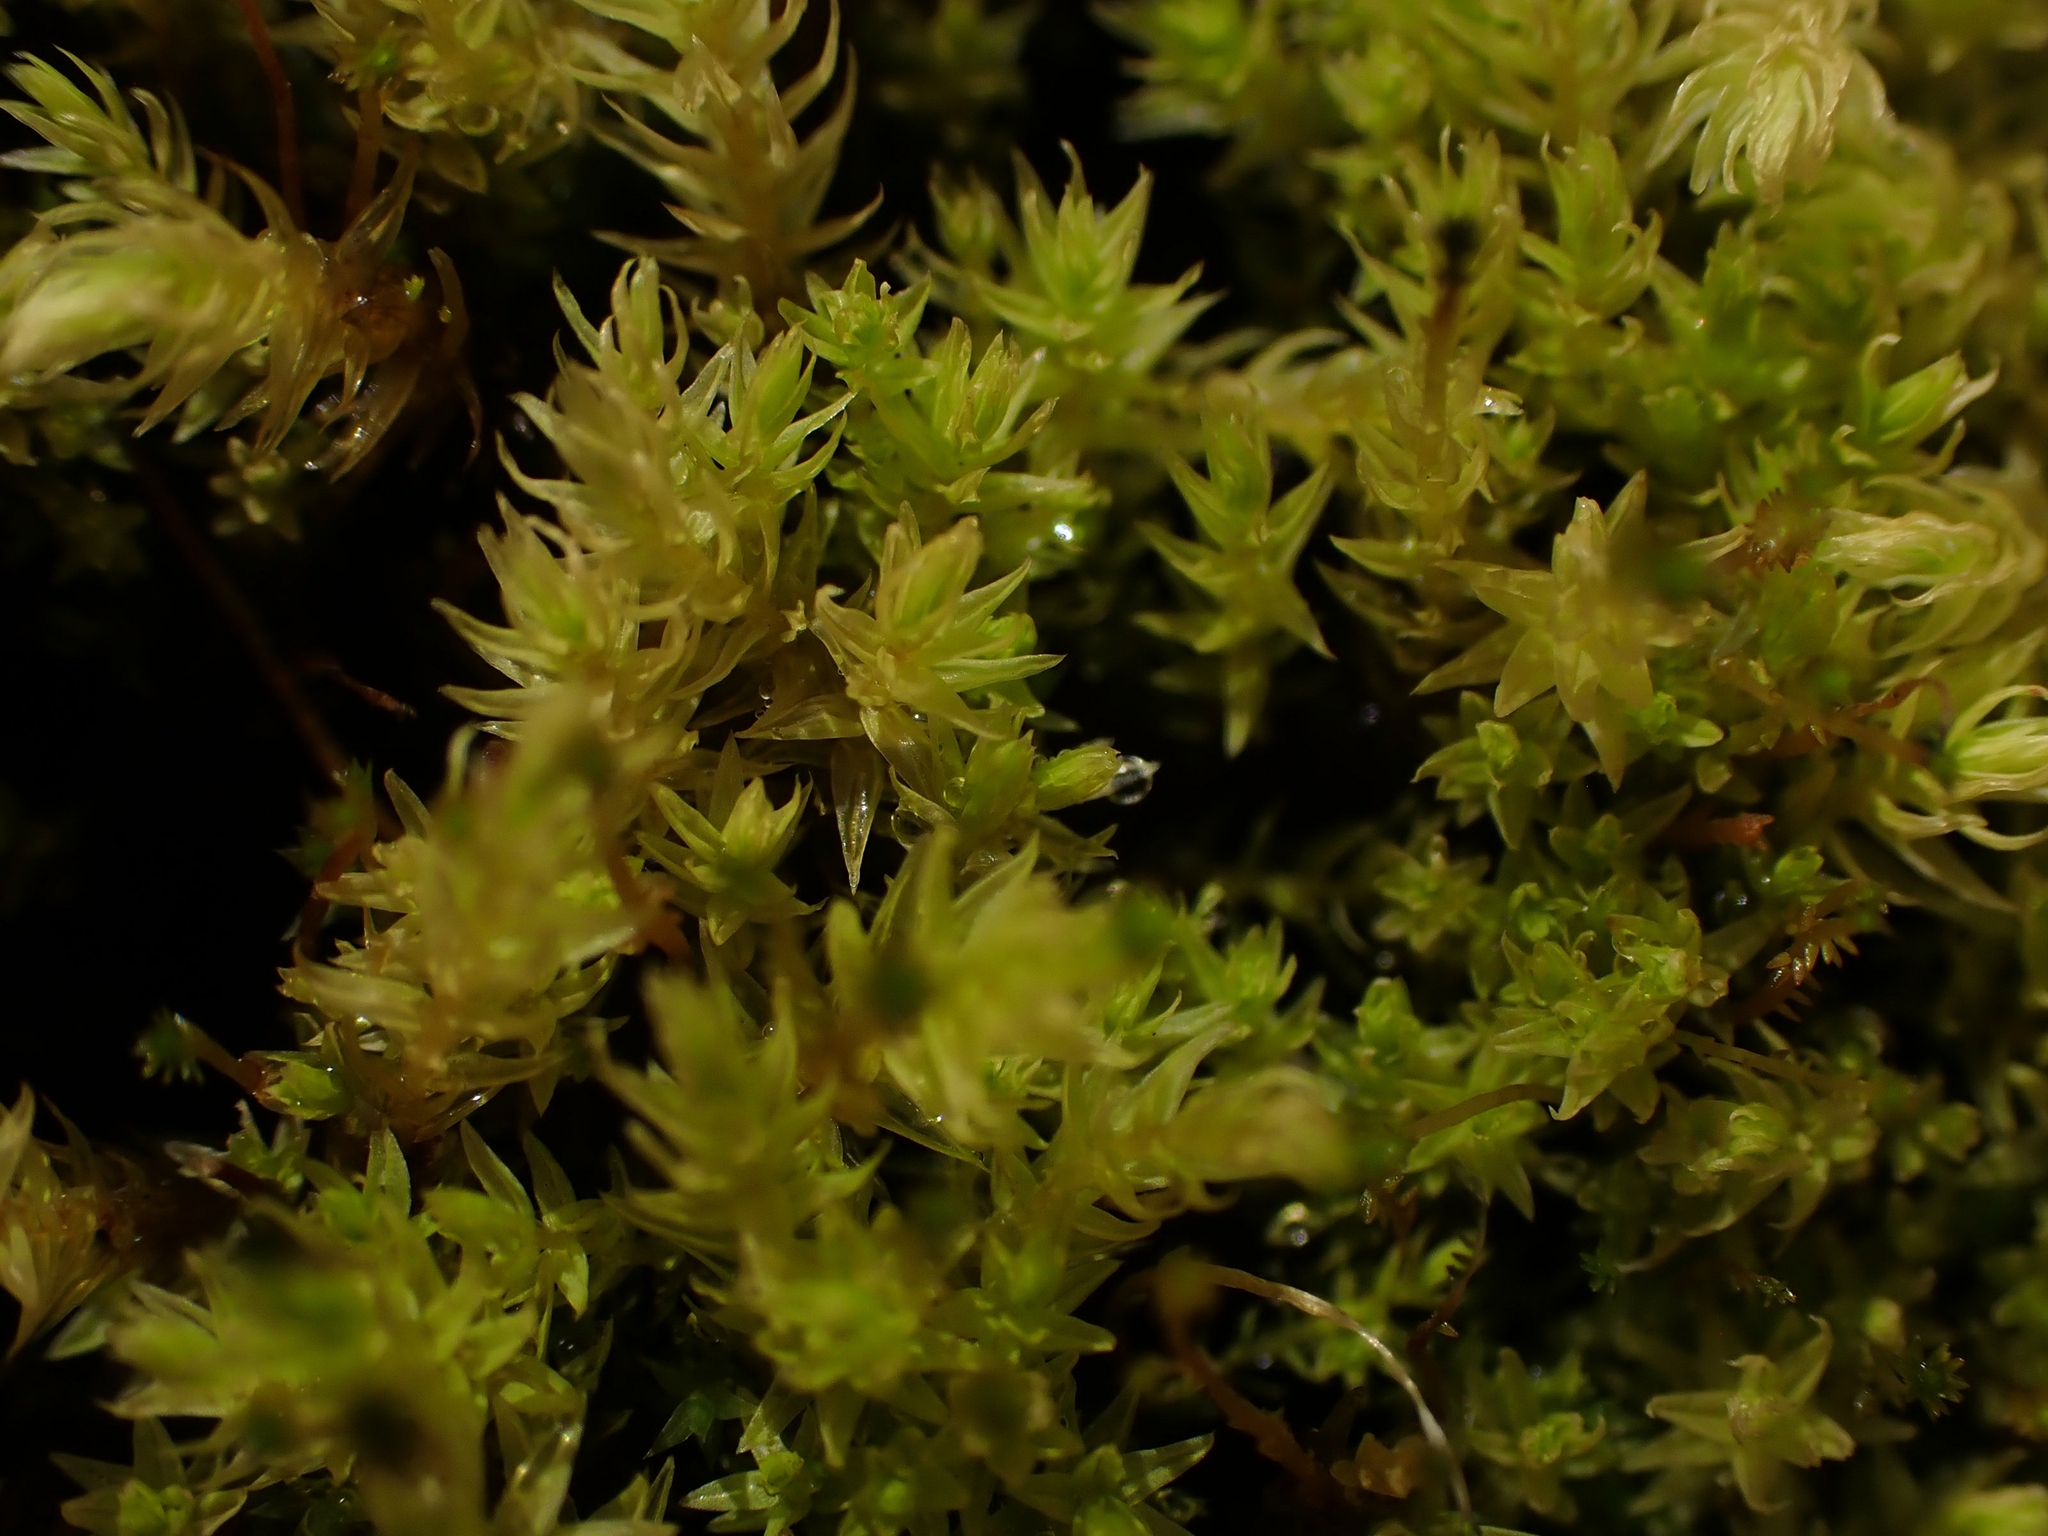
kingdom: Plantae
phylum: Bryophyta
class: Bryopsida
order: Aulacomniales
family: Aulacomniaceae
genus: Aulacomnium
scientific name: Aulacomnium palustre
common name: Bog groove-moss
